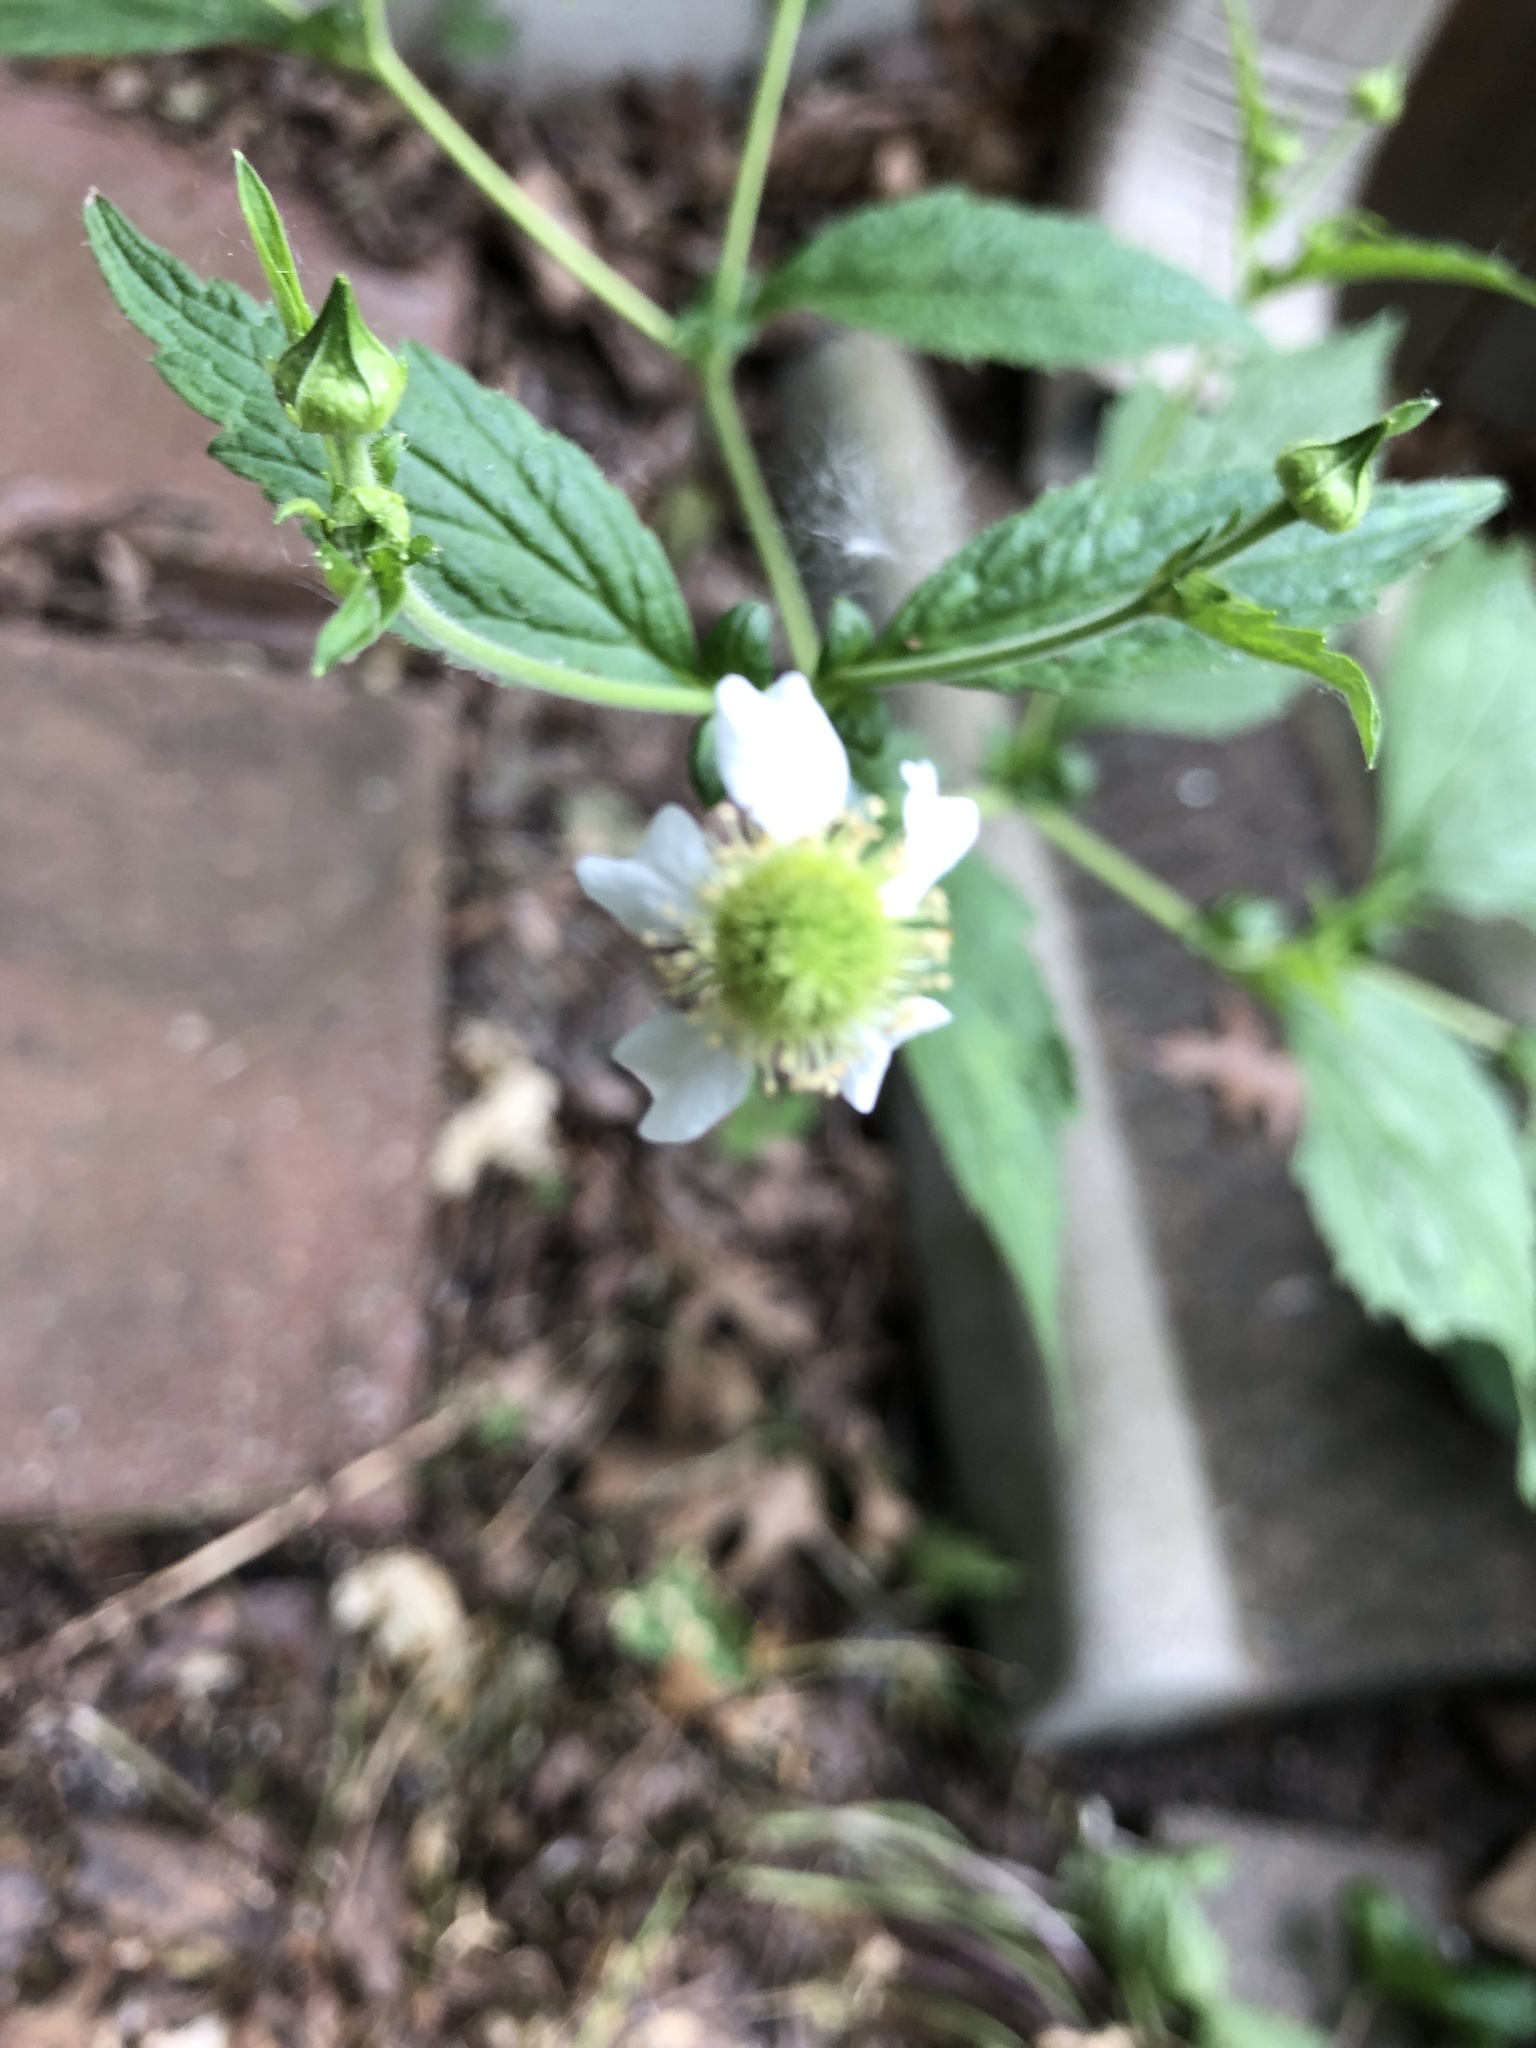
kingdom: Plantae
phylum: Tracheophyta
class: Magnoliopsida
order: Rosales
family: Rosaceae
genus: Geum
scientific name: Geum canadense
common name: White avens
